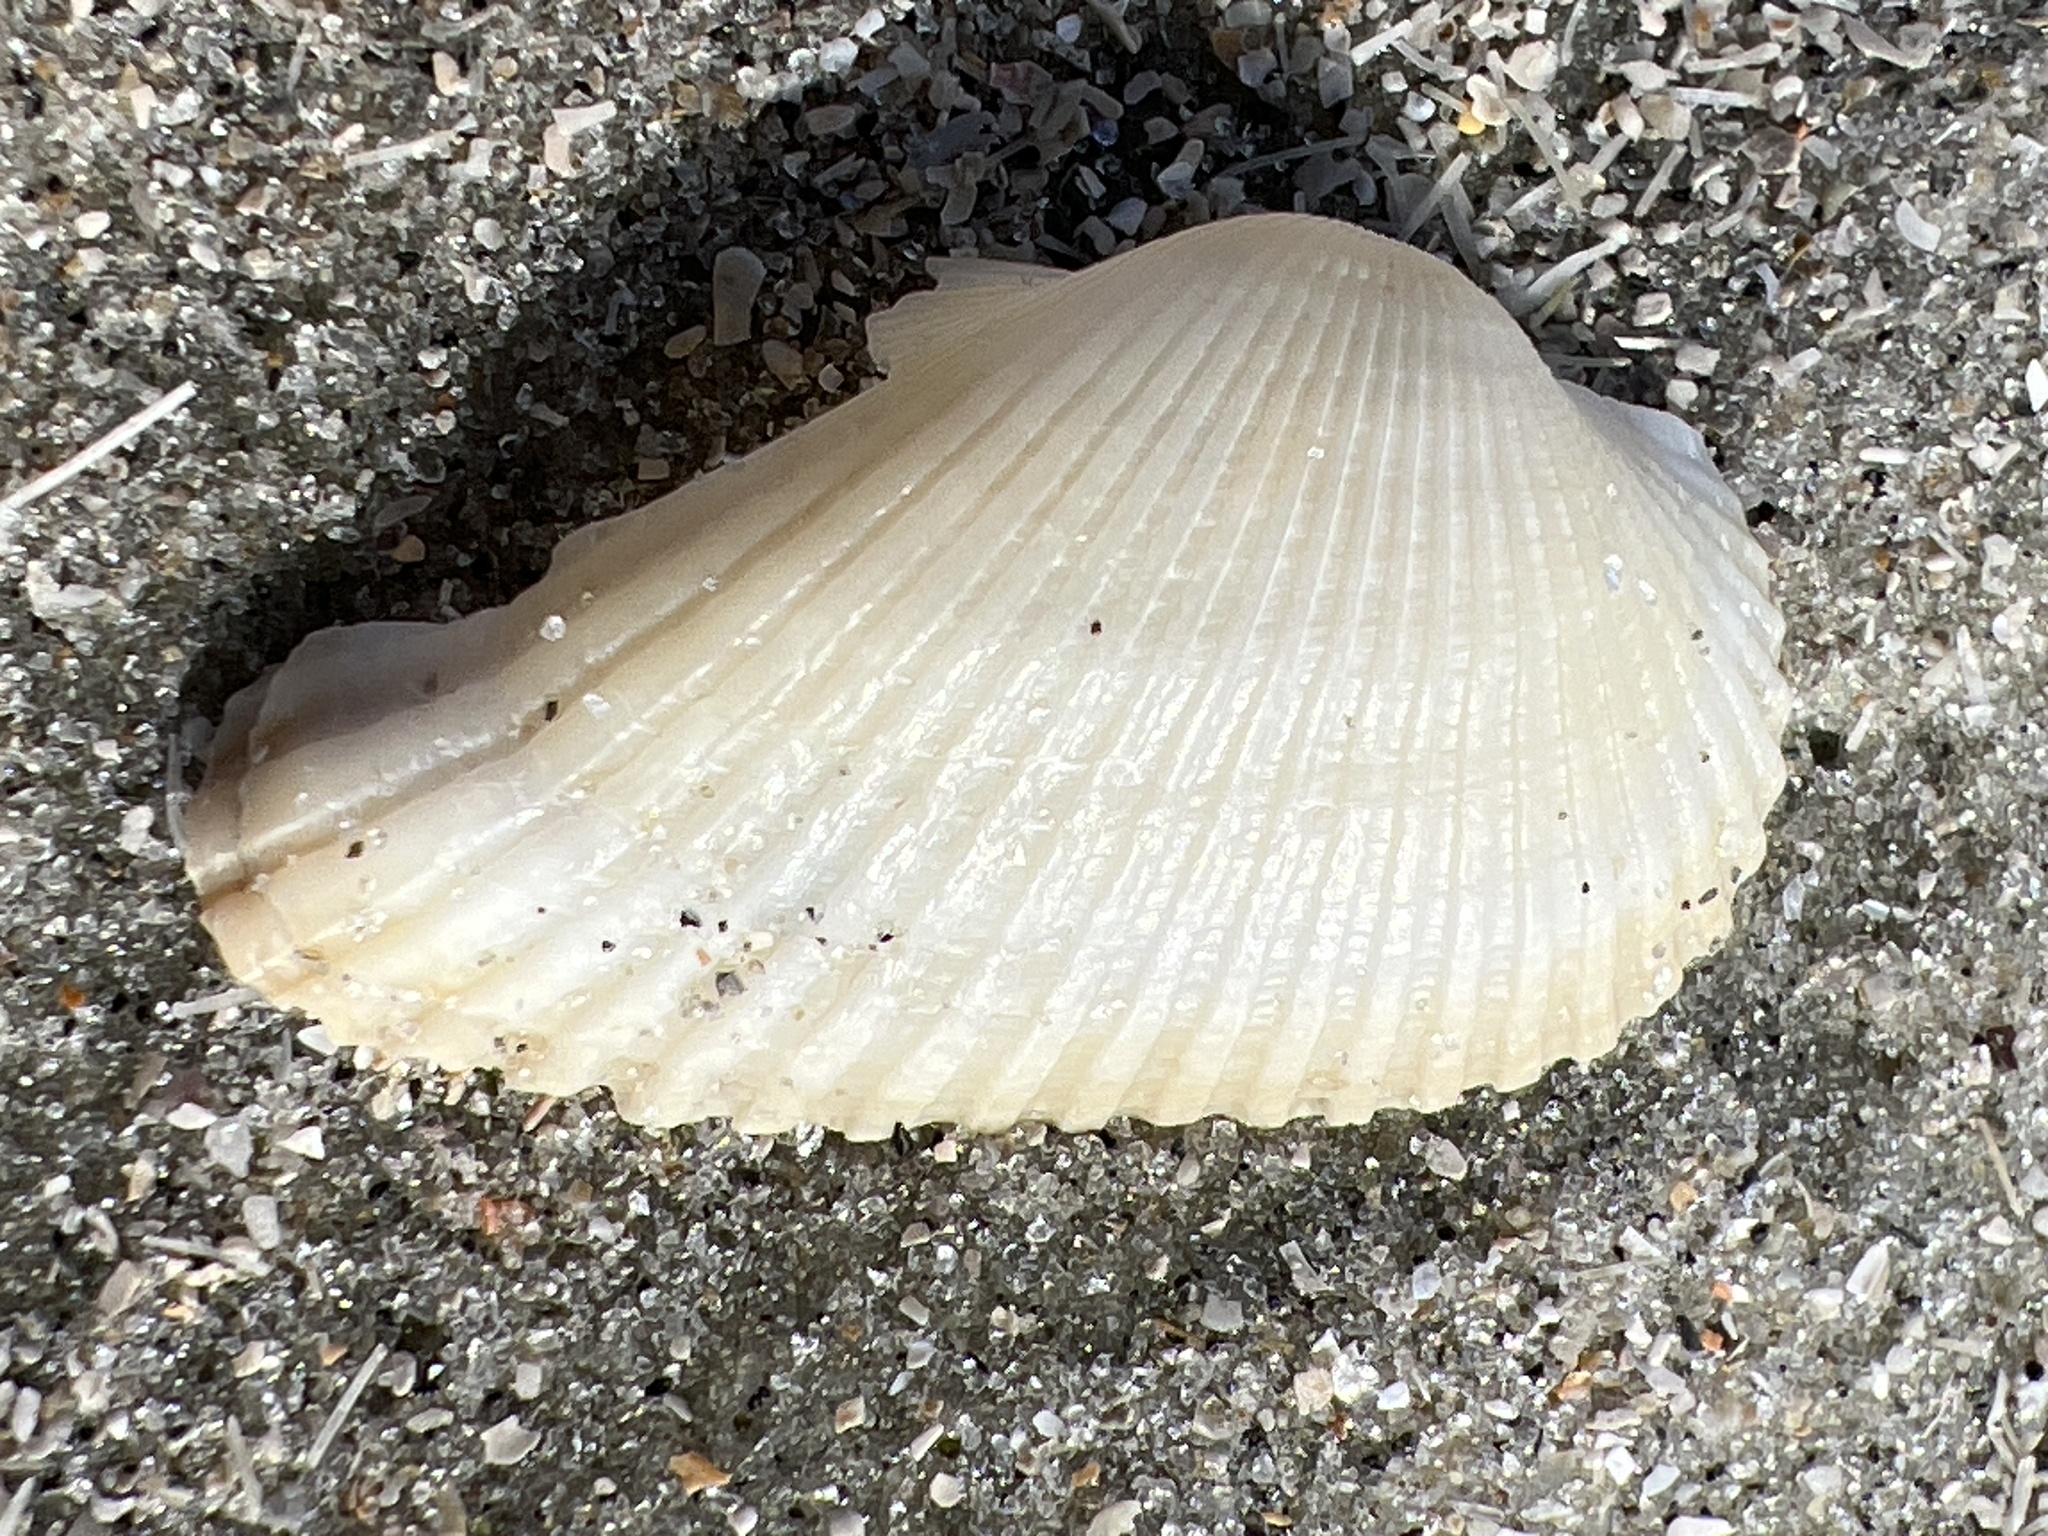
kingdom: Animalia
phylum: Mollusca
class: Bivalvia
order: Arcida
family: Arcidae
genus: Anadara
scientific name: Anadara transversa
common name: Transverse ark
